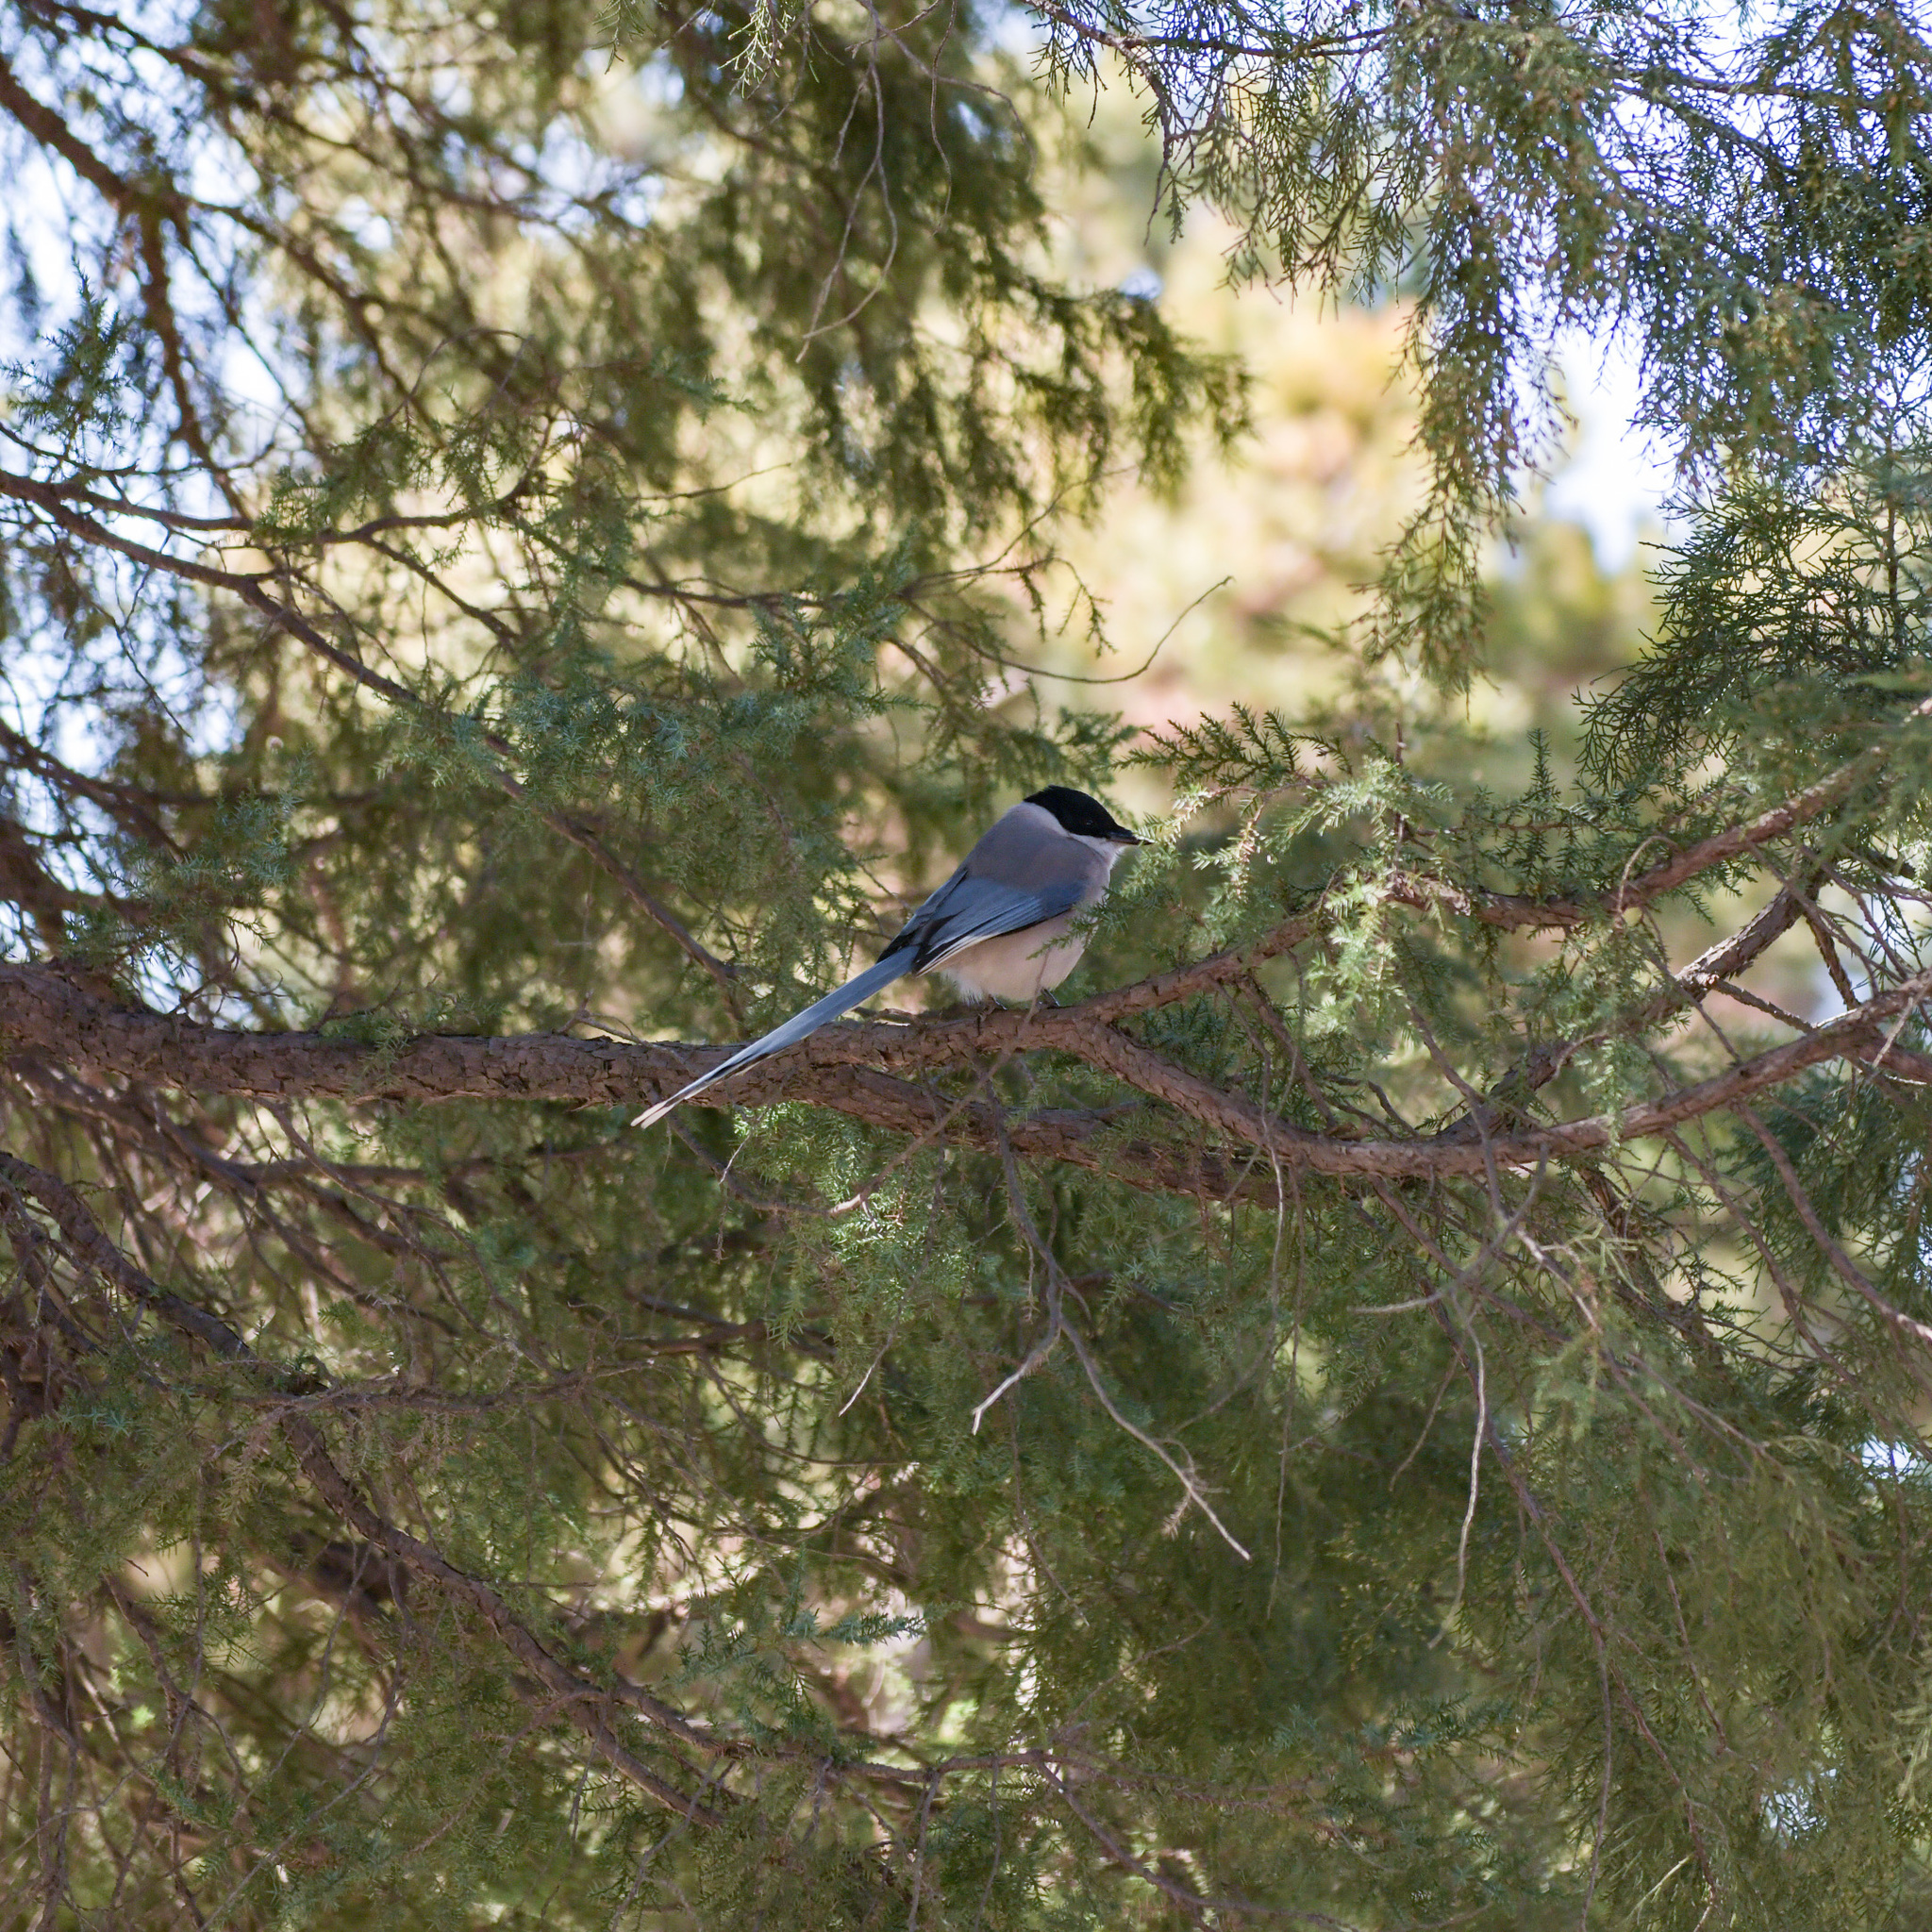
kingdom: Animalia
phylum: Chordata
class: Aves
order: Passeriformes
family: Corvidae
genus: Cyanopica
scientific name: Cyanopica cyanus
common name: Azure-winged magpie
